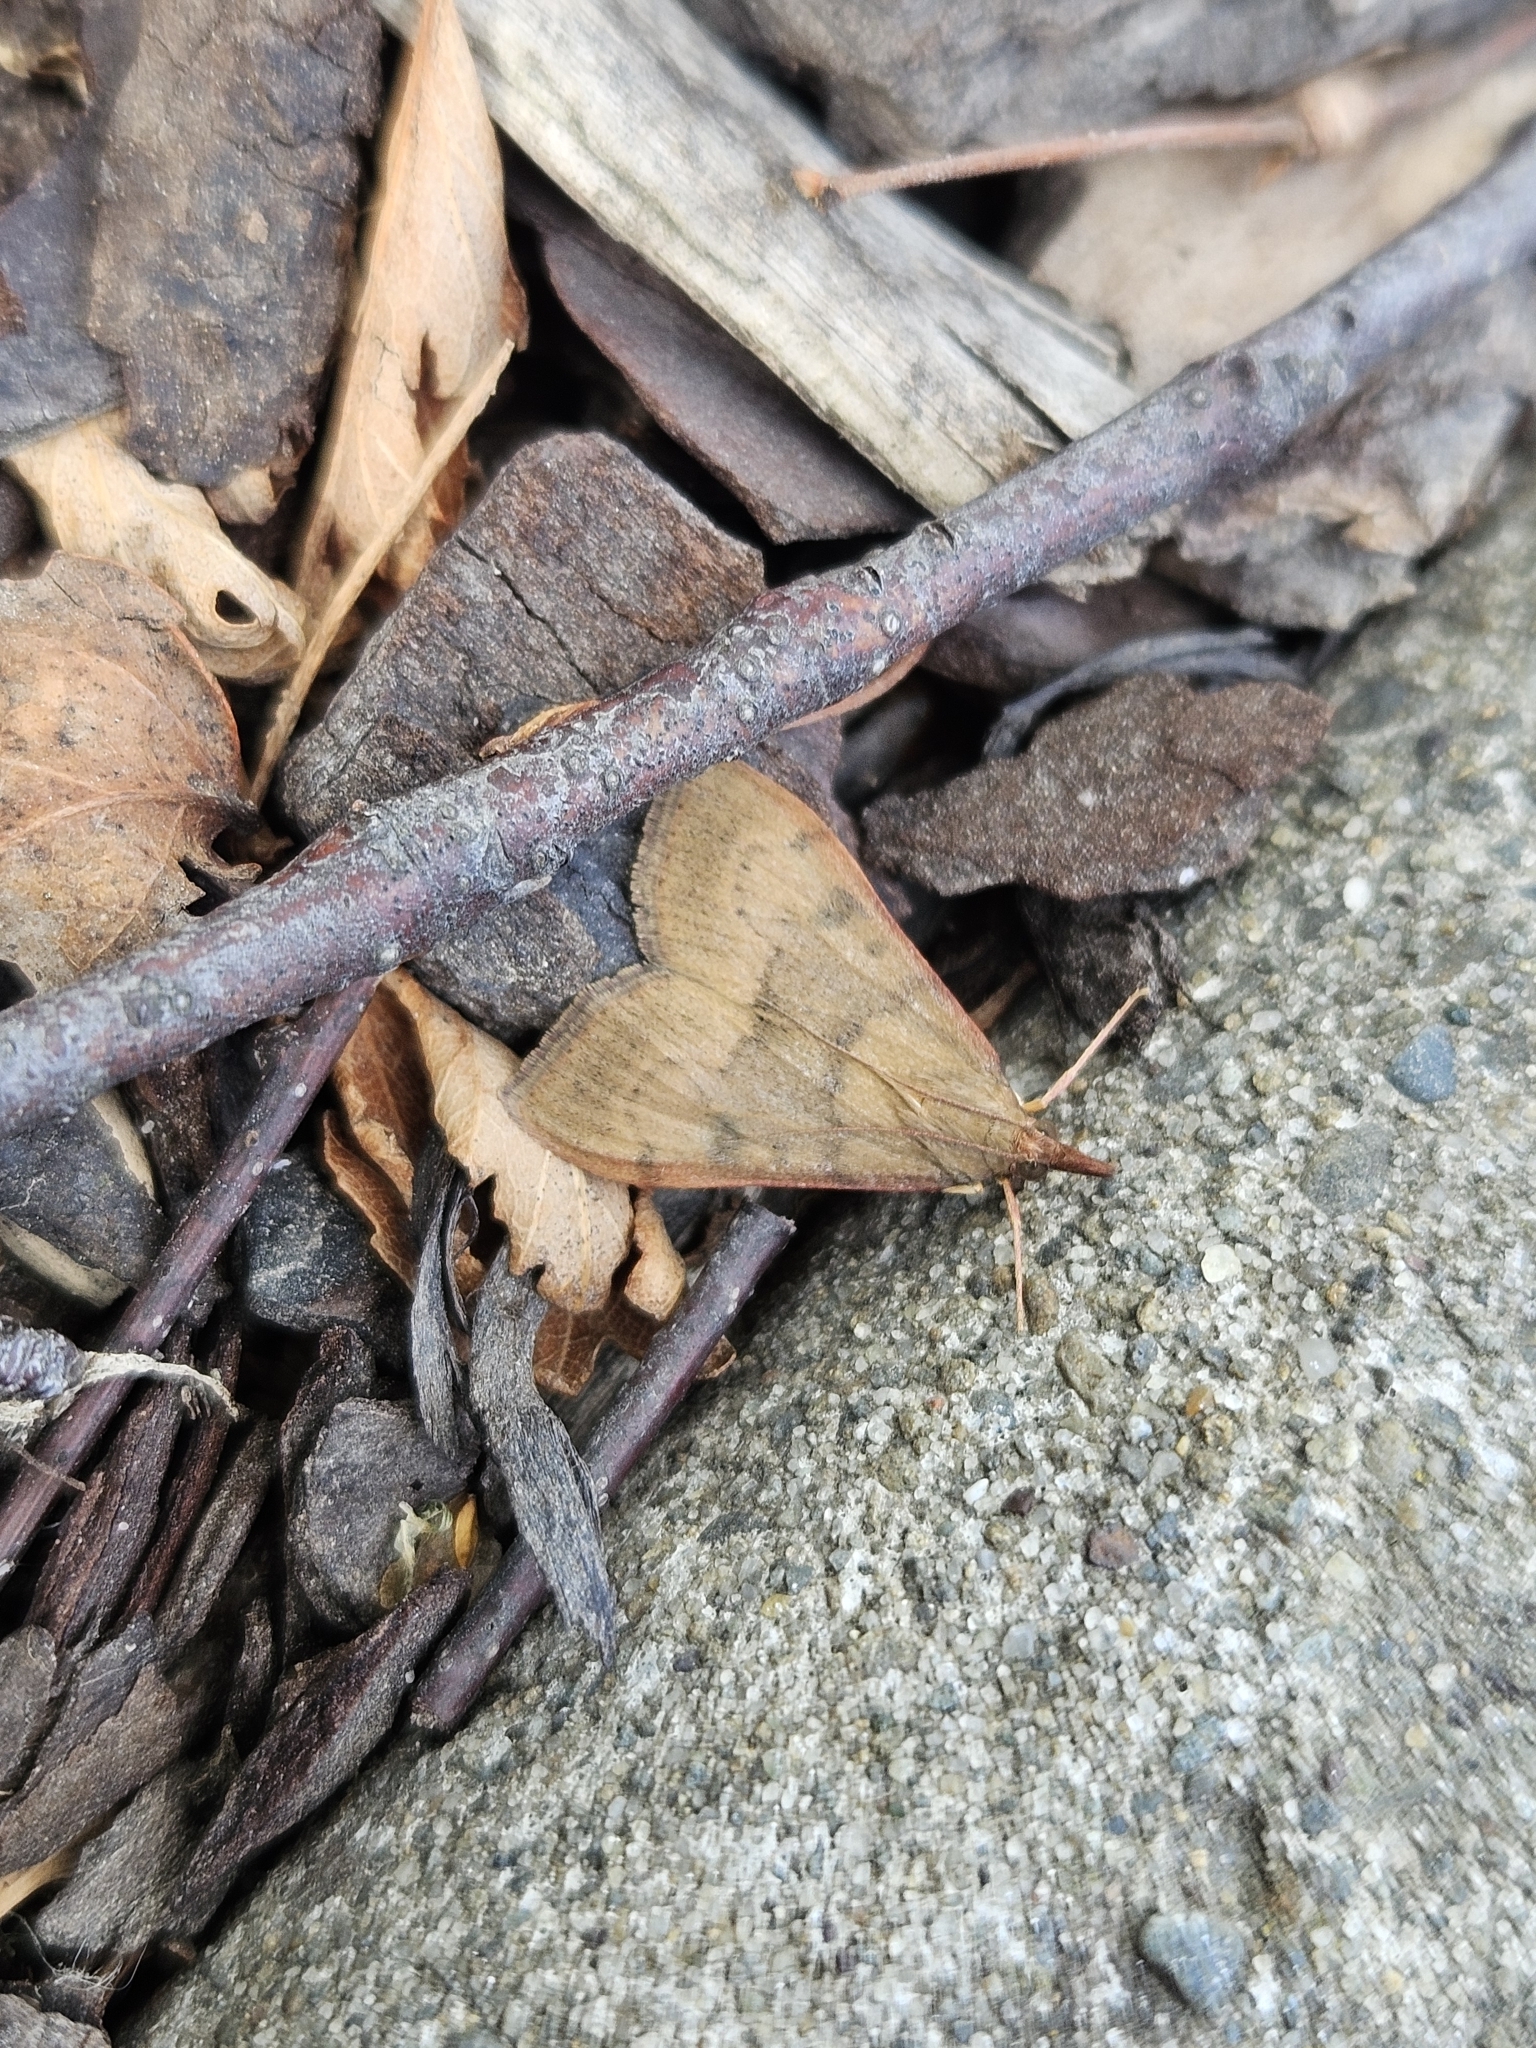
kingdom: Animalia
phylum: Arthropoda
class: Insecta
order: Lepidoptera
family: Crambidae
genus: Uresiphita
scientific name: Uresiphita
